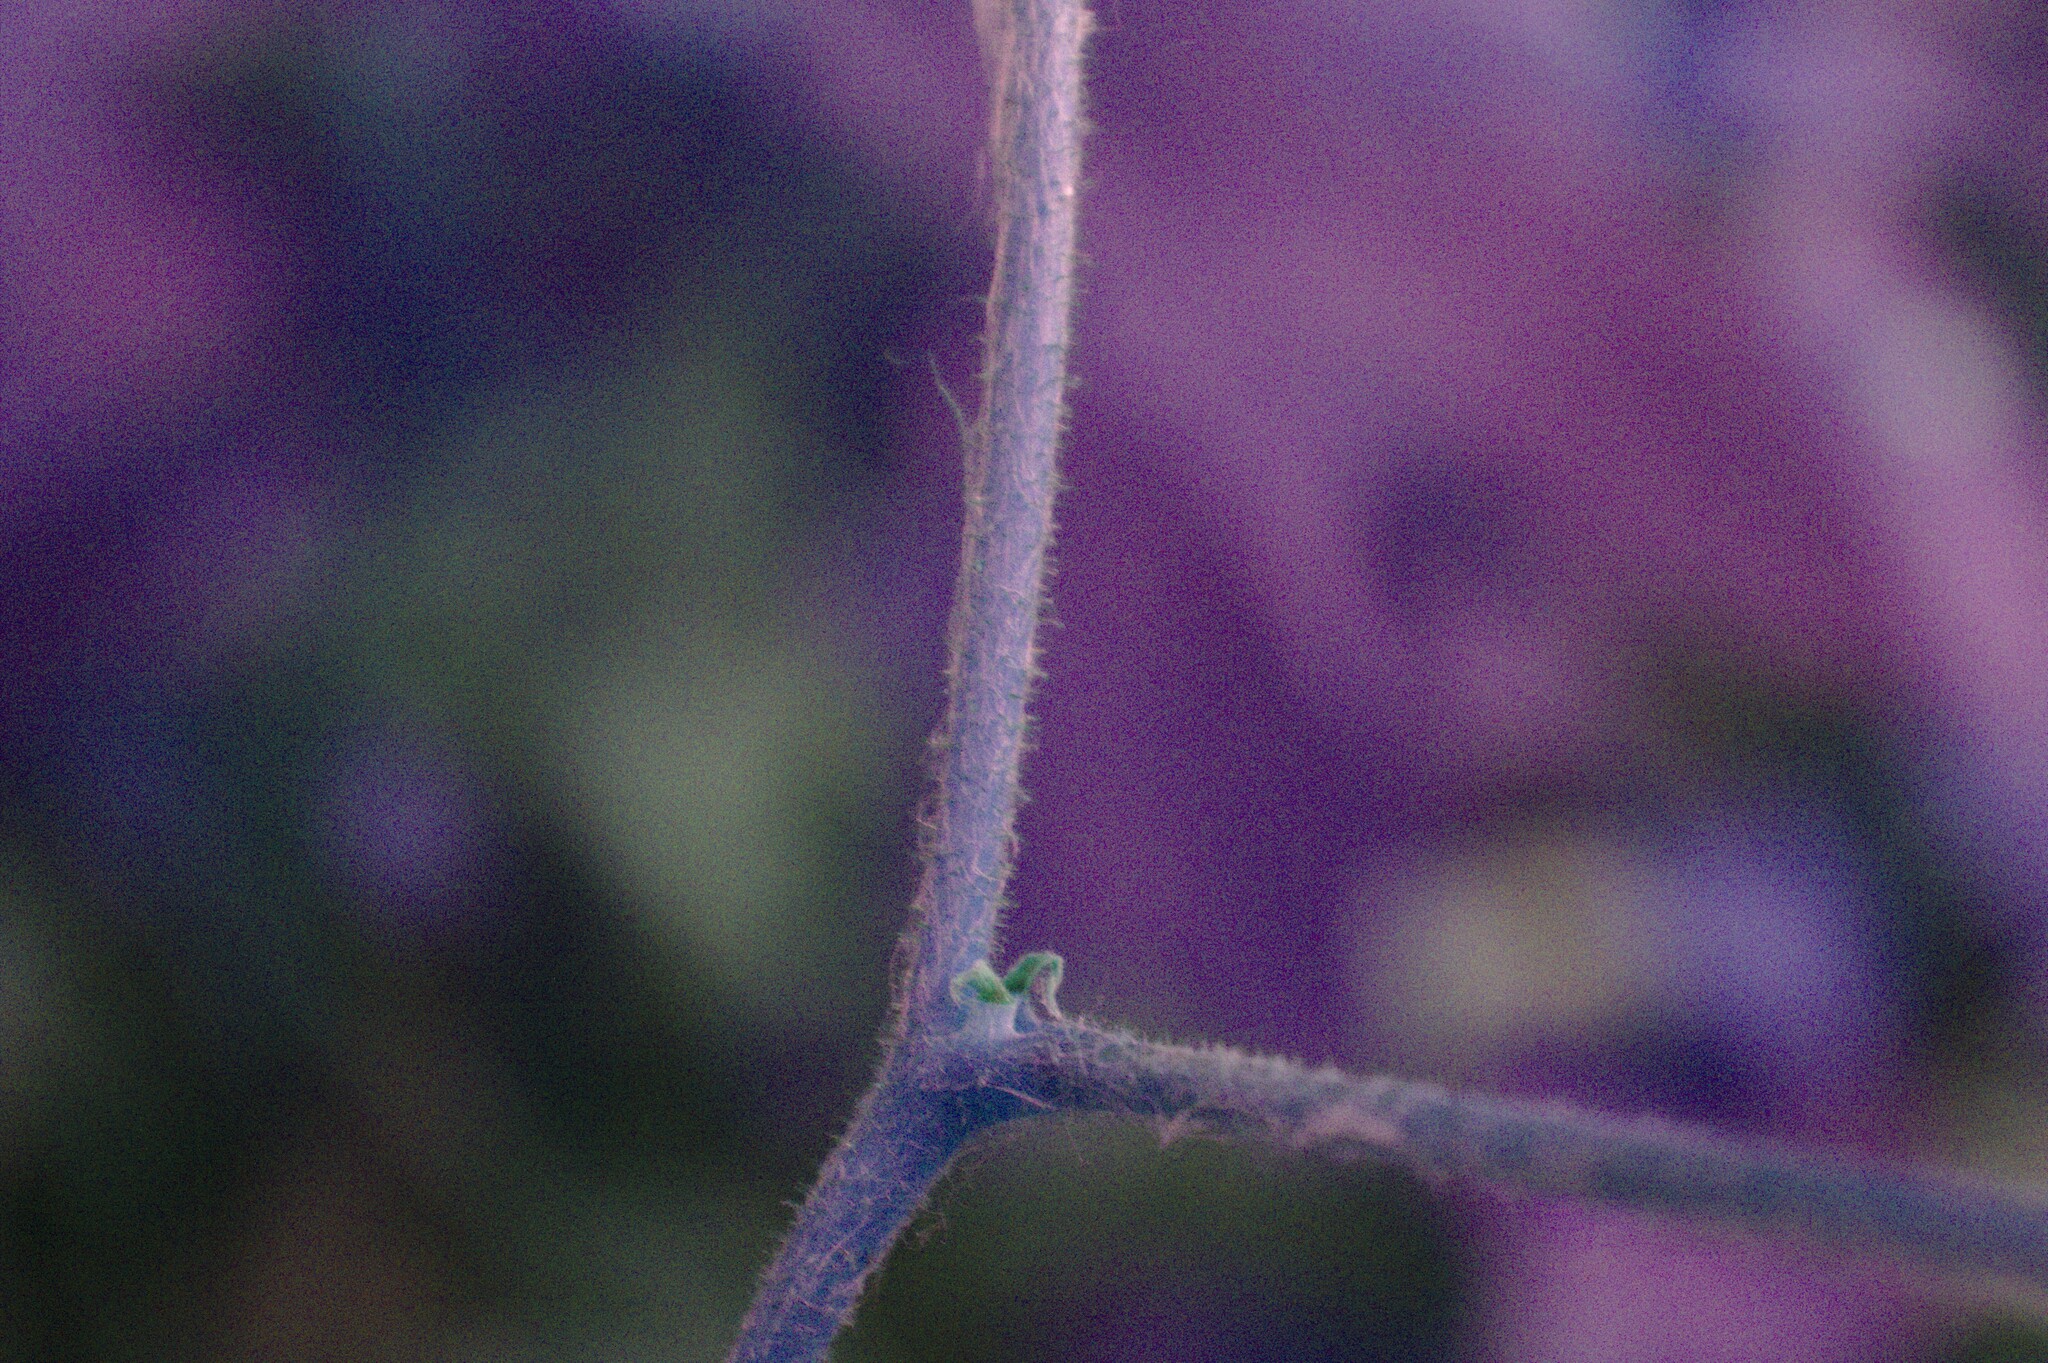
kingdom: Plantae
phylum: Tracheophyta
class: Magnoliopsida
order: Rosales
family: Rosaceae
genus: Rubus
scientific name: Rubus odoratus
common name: Purple-flowered raspberry
